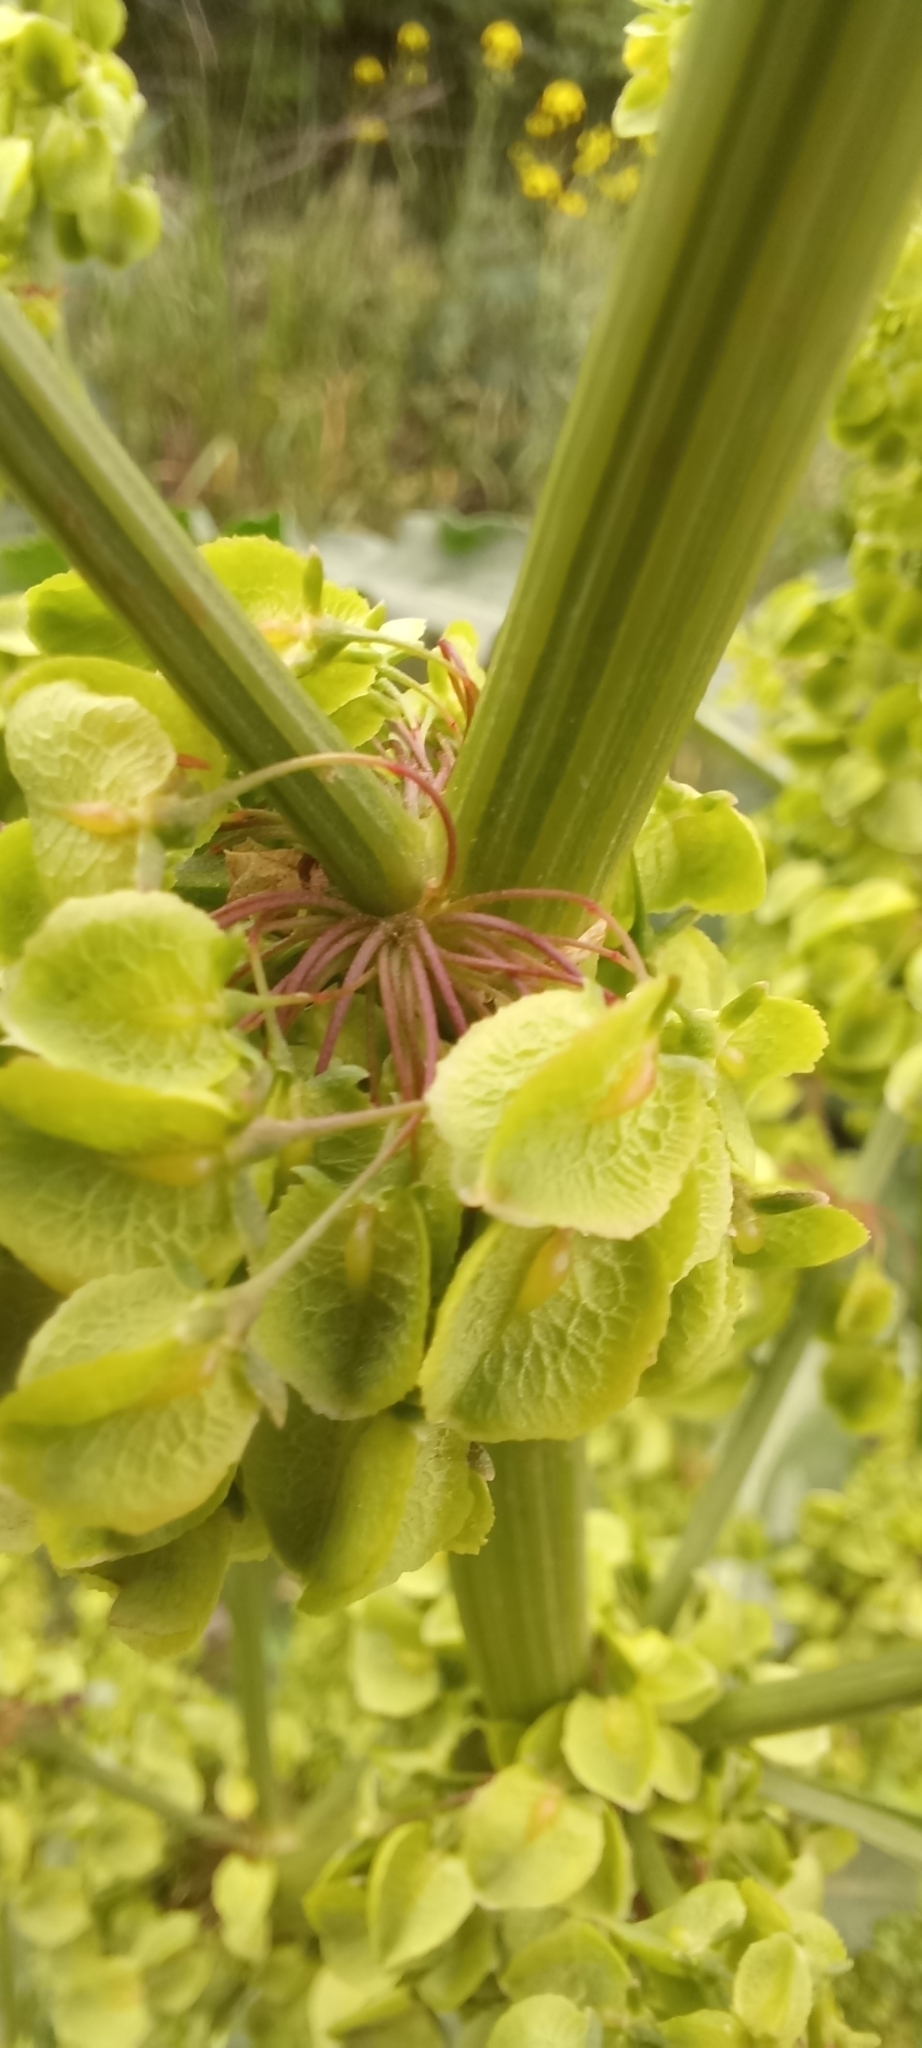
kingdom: Plantae
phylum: Tracheophyta
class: Magnoliopsida
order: Caryophyllales
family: Polygonaceae
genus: Rumex
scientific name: Rumex patientia
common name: Patience dock
